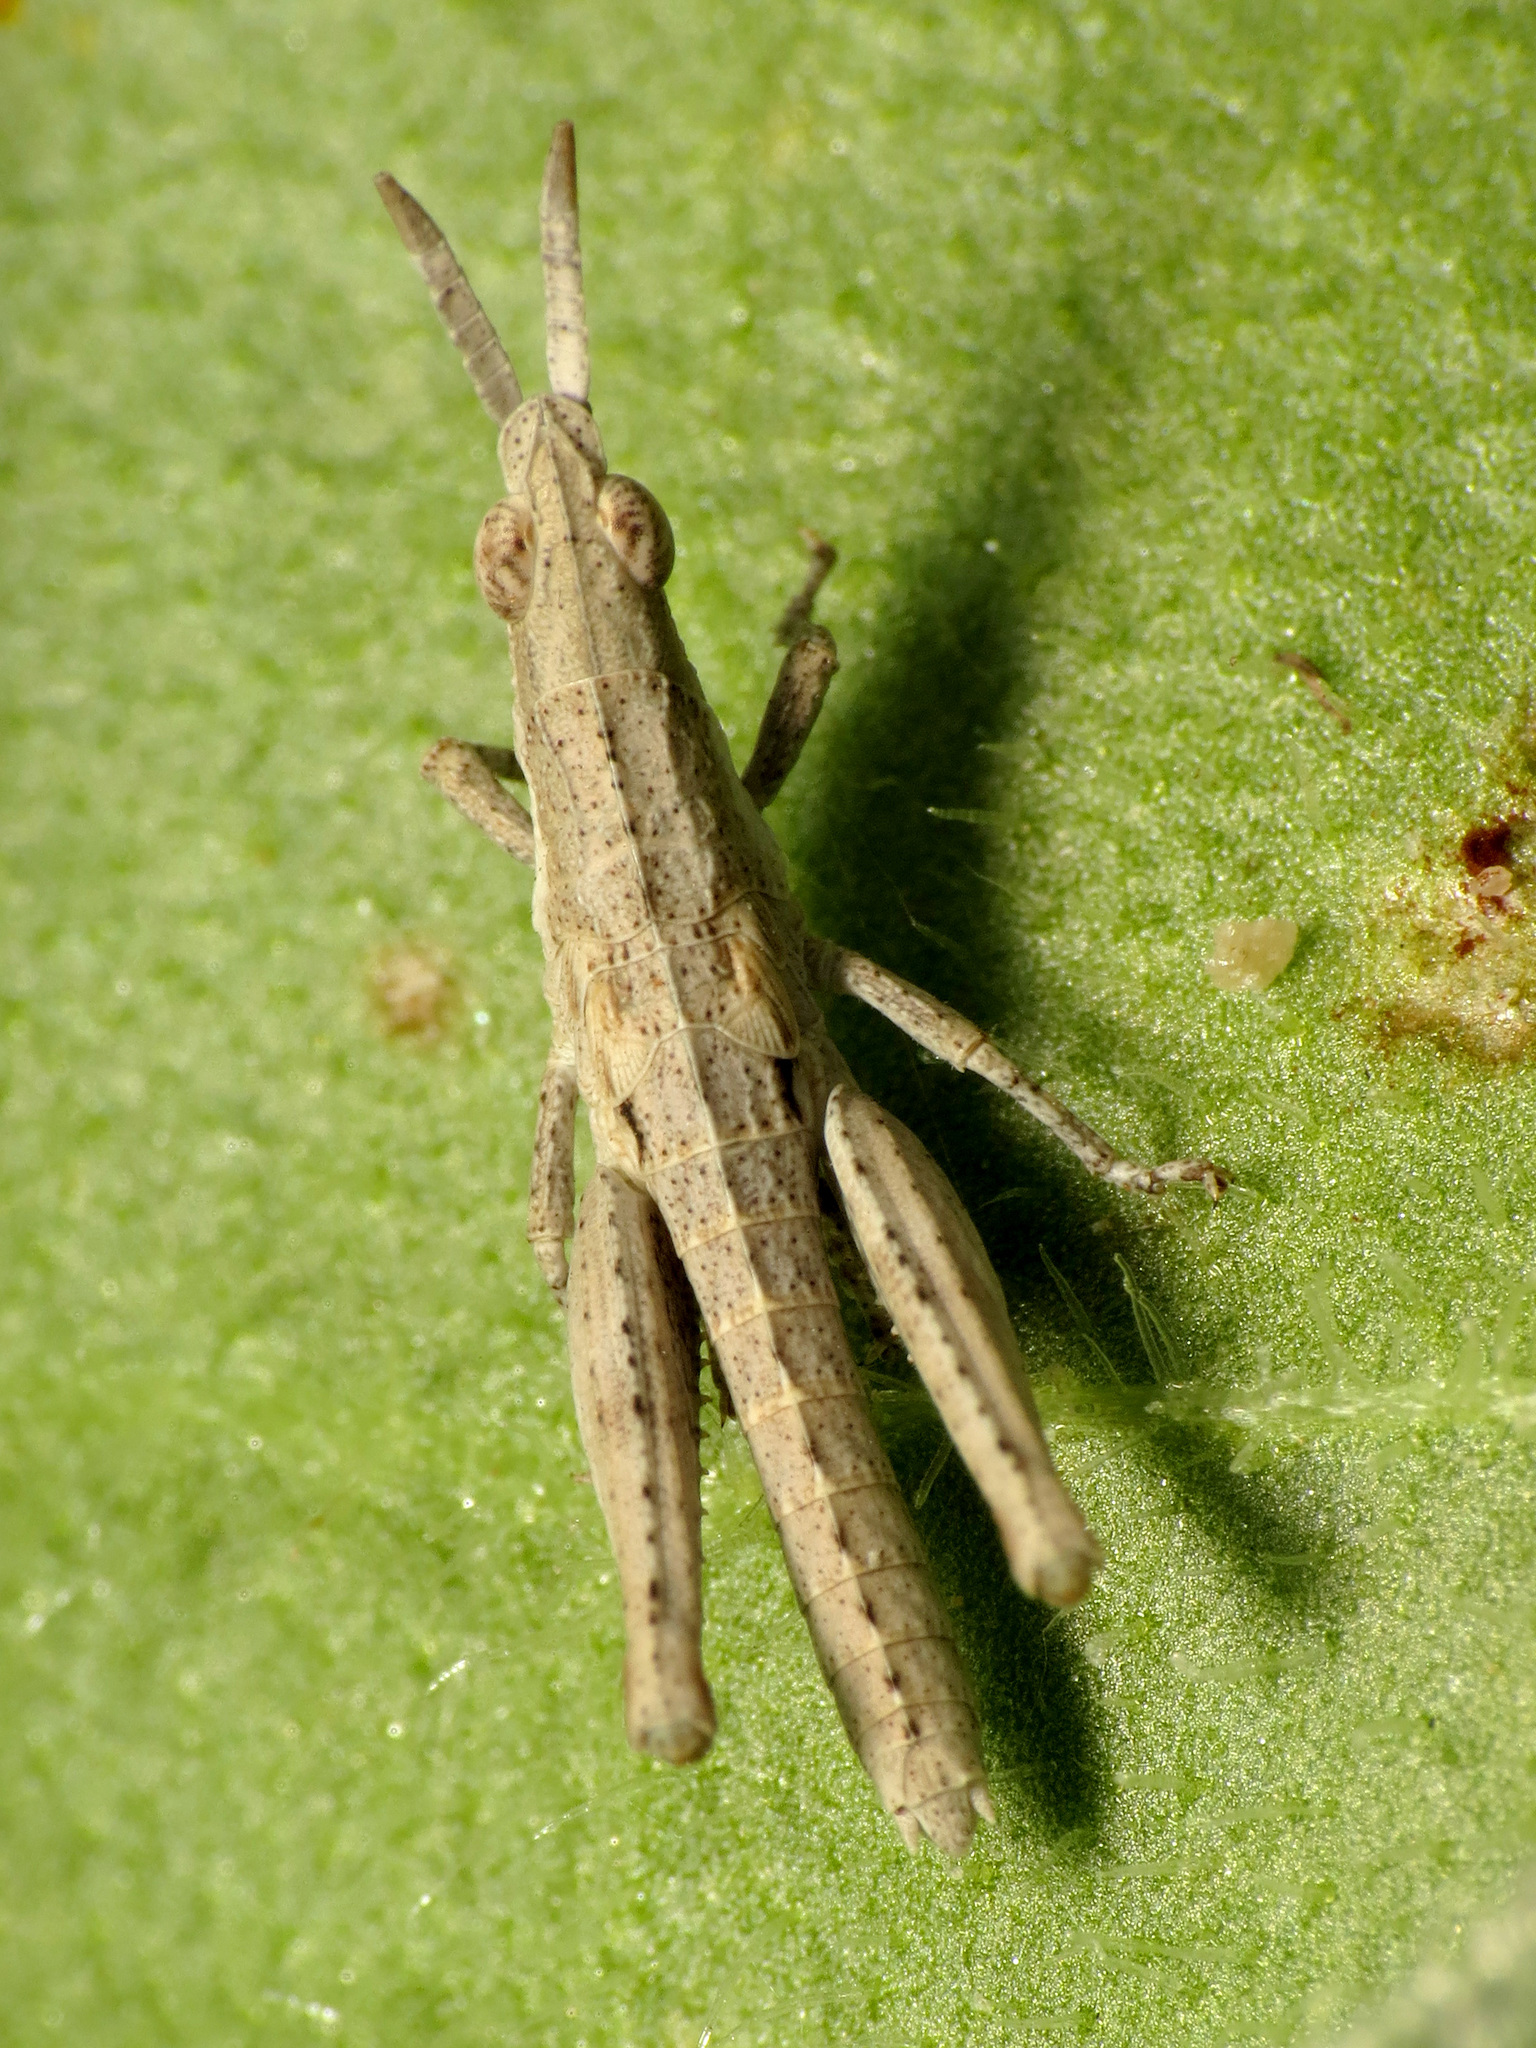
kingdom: Animalia
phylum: Arthropoda
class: Insecta
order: Orthoptera
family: Pyrgomorphidae
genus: Pyrgomorpha
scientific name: Pyrgomorpha conica
